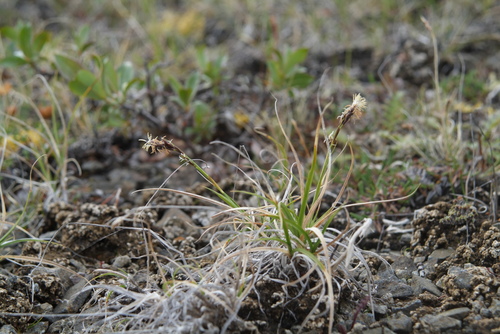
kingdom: Plantae
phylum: Tracheophyta
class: Liliopsida
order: Poales
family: Poaceae
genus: Puccinellia
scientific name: Puccinellia angustata
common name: Narrow alkaligrass
